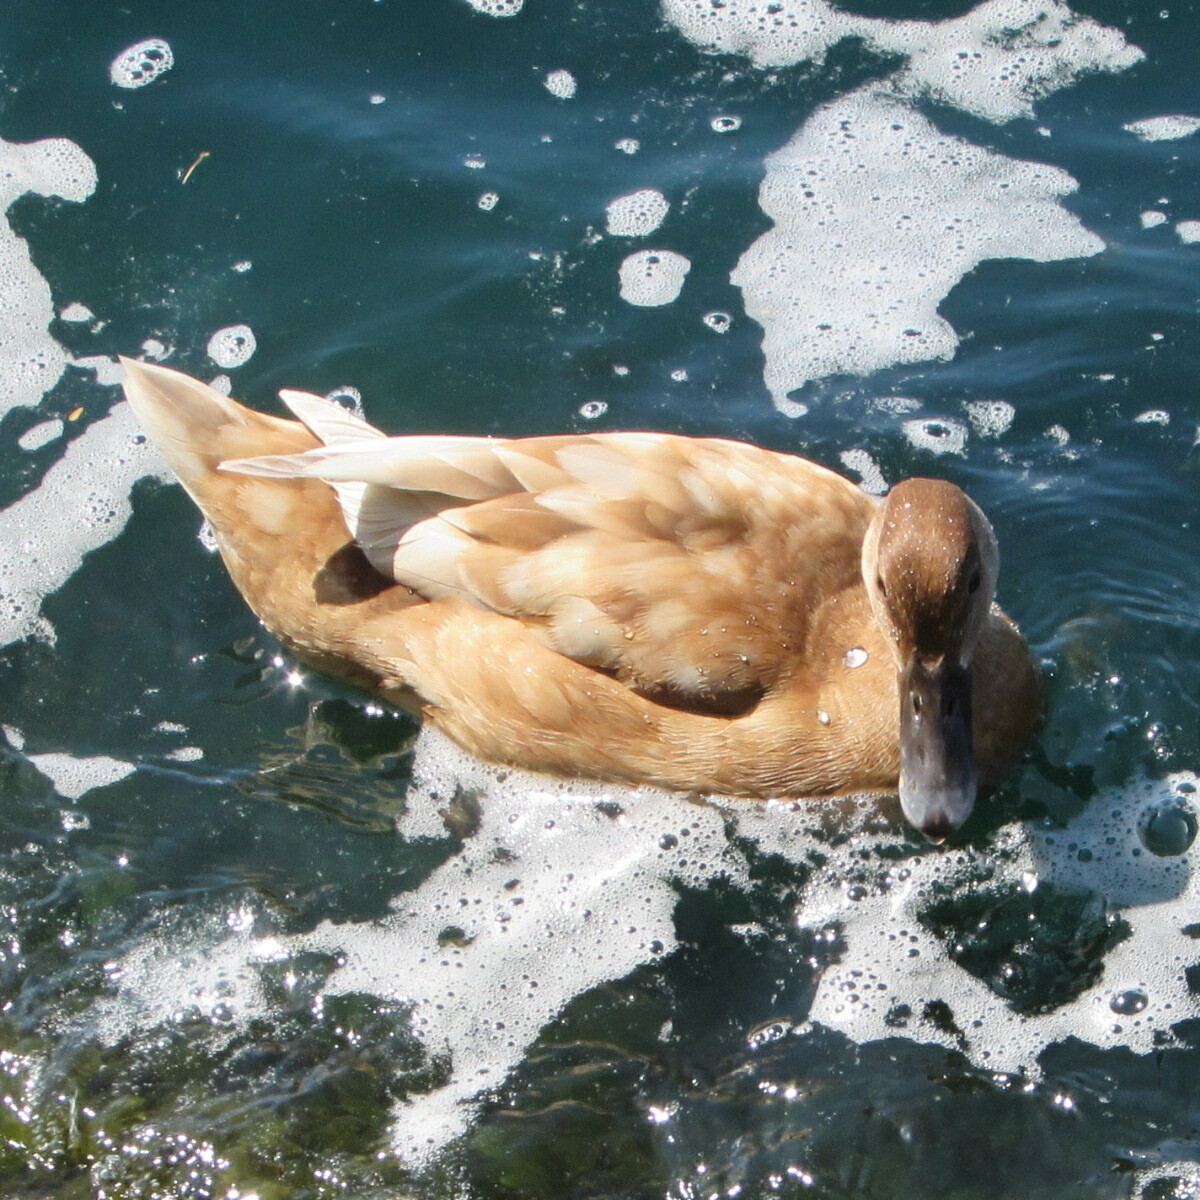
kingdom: Animalia
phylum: Chordata
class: Aves
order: Anseriformes
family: Anatidae
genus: Netta
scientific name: Netta rufina
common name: Red-crested pochard
